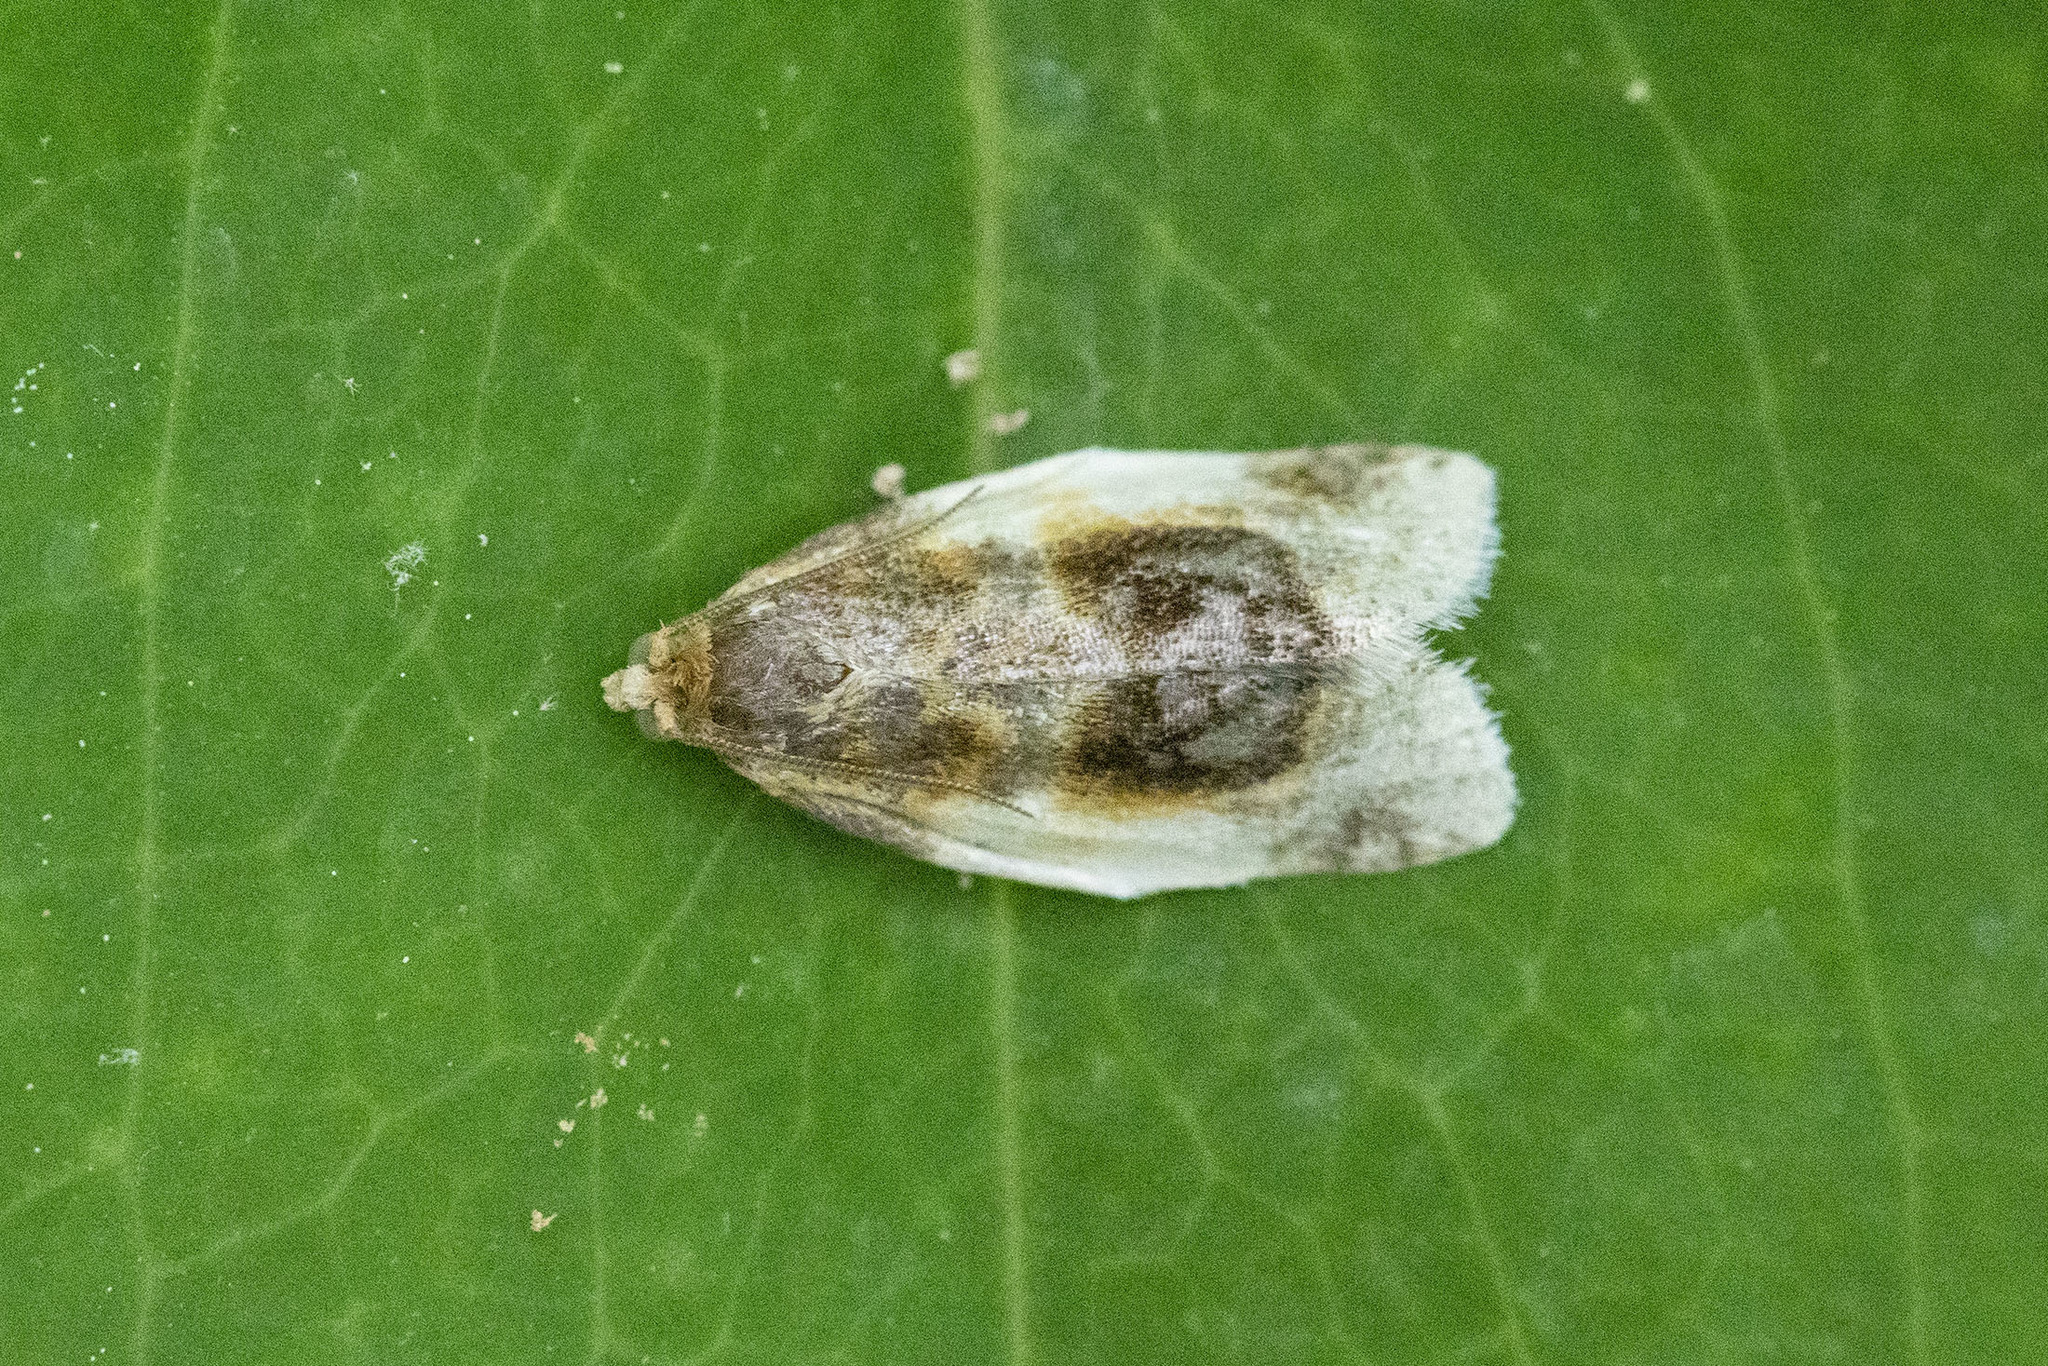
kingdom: Animalia
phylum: Arthropoda
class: Insecta
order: Lepidoptera
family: Tortricidae
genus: Clepsis
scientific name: Clepsis melaleucanus
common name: American apple tortrix
